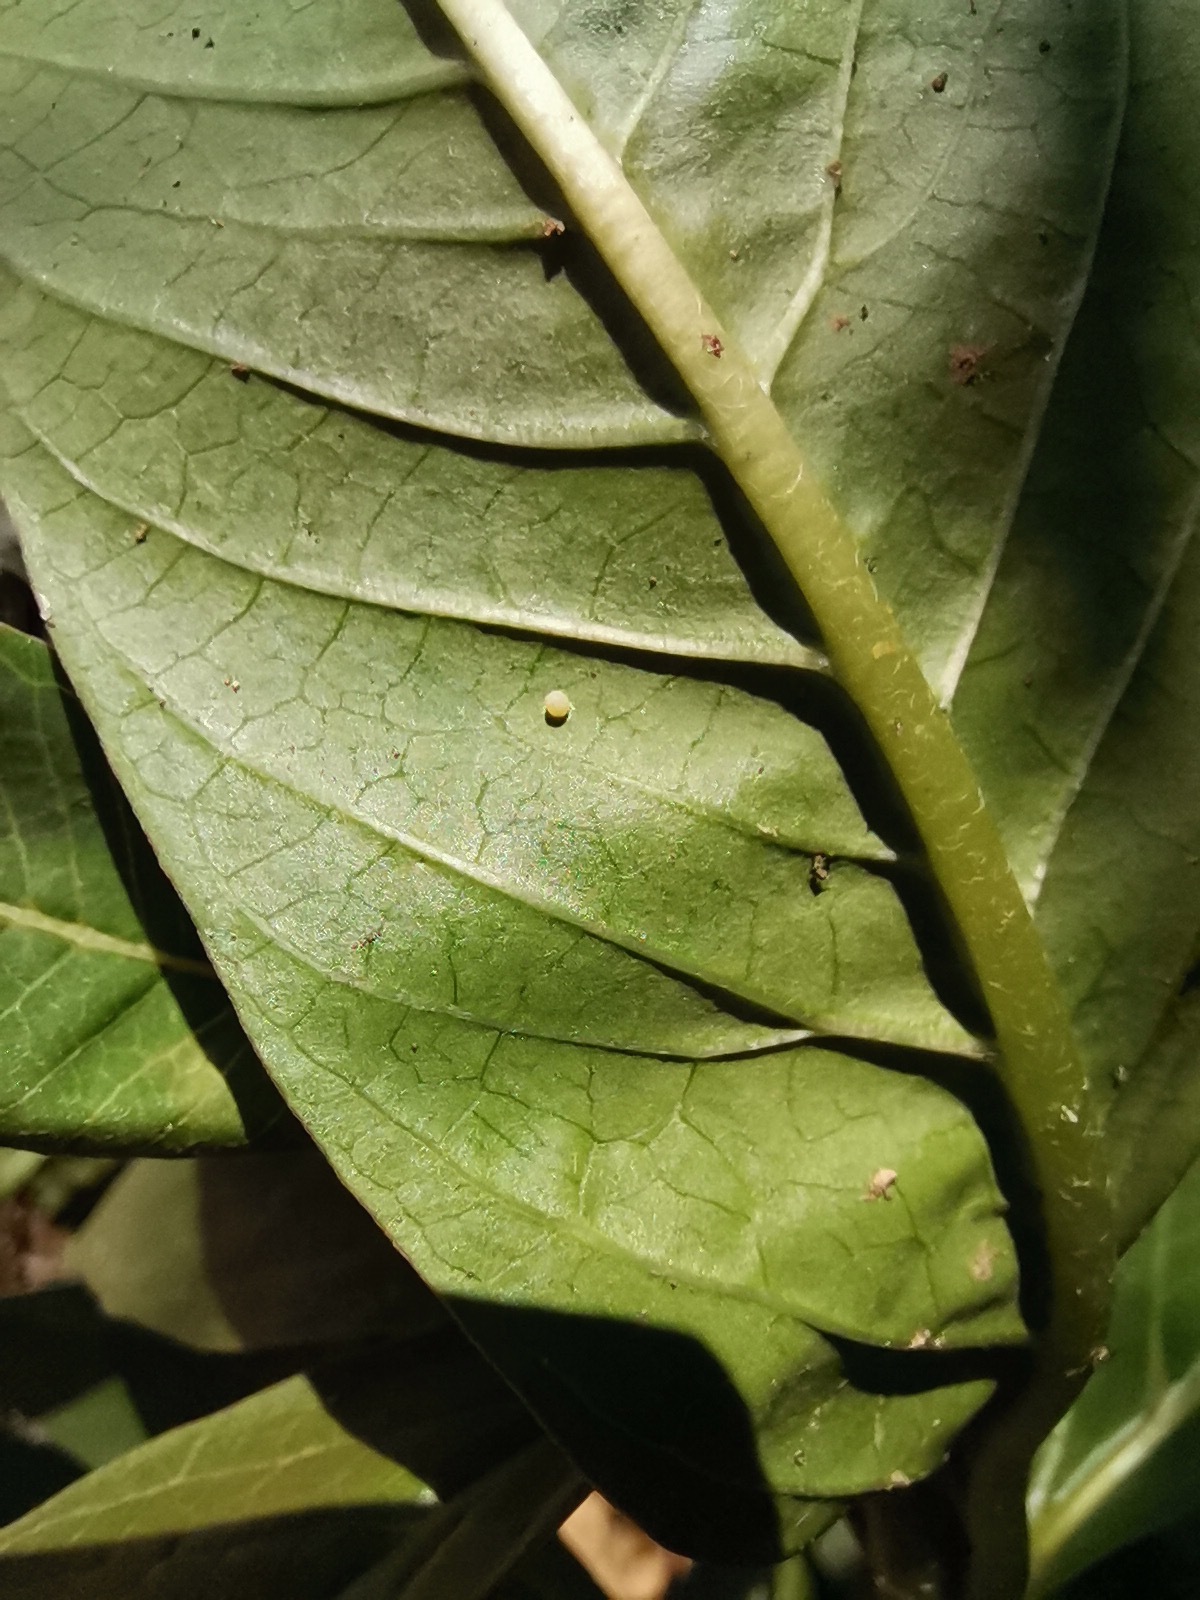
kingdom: Animalia
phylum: Arthropoda
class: Insecta
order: Lepidoptera
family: Nymphalidae
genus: Danaus
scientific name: Danaus plexippus
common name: Monarch
